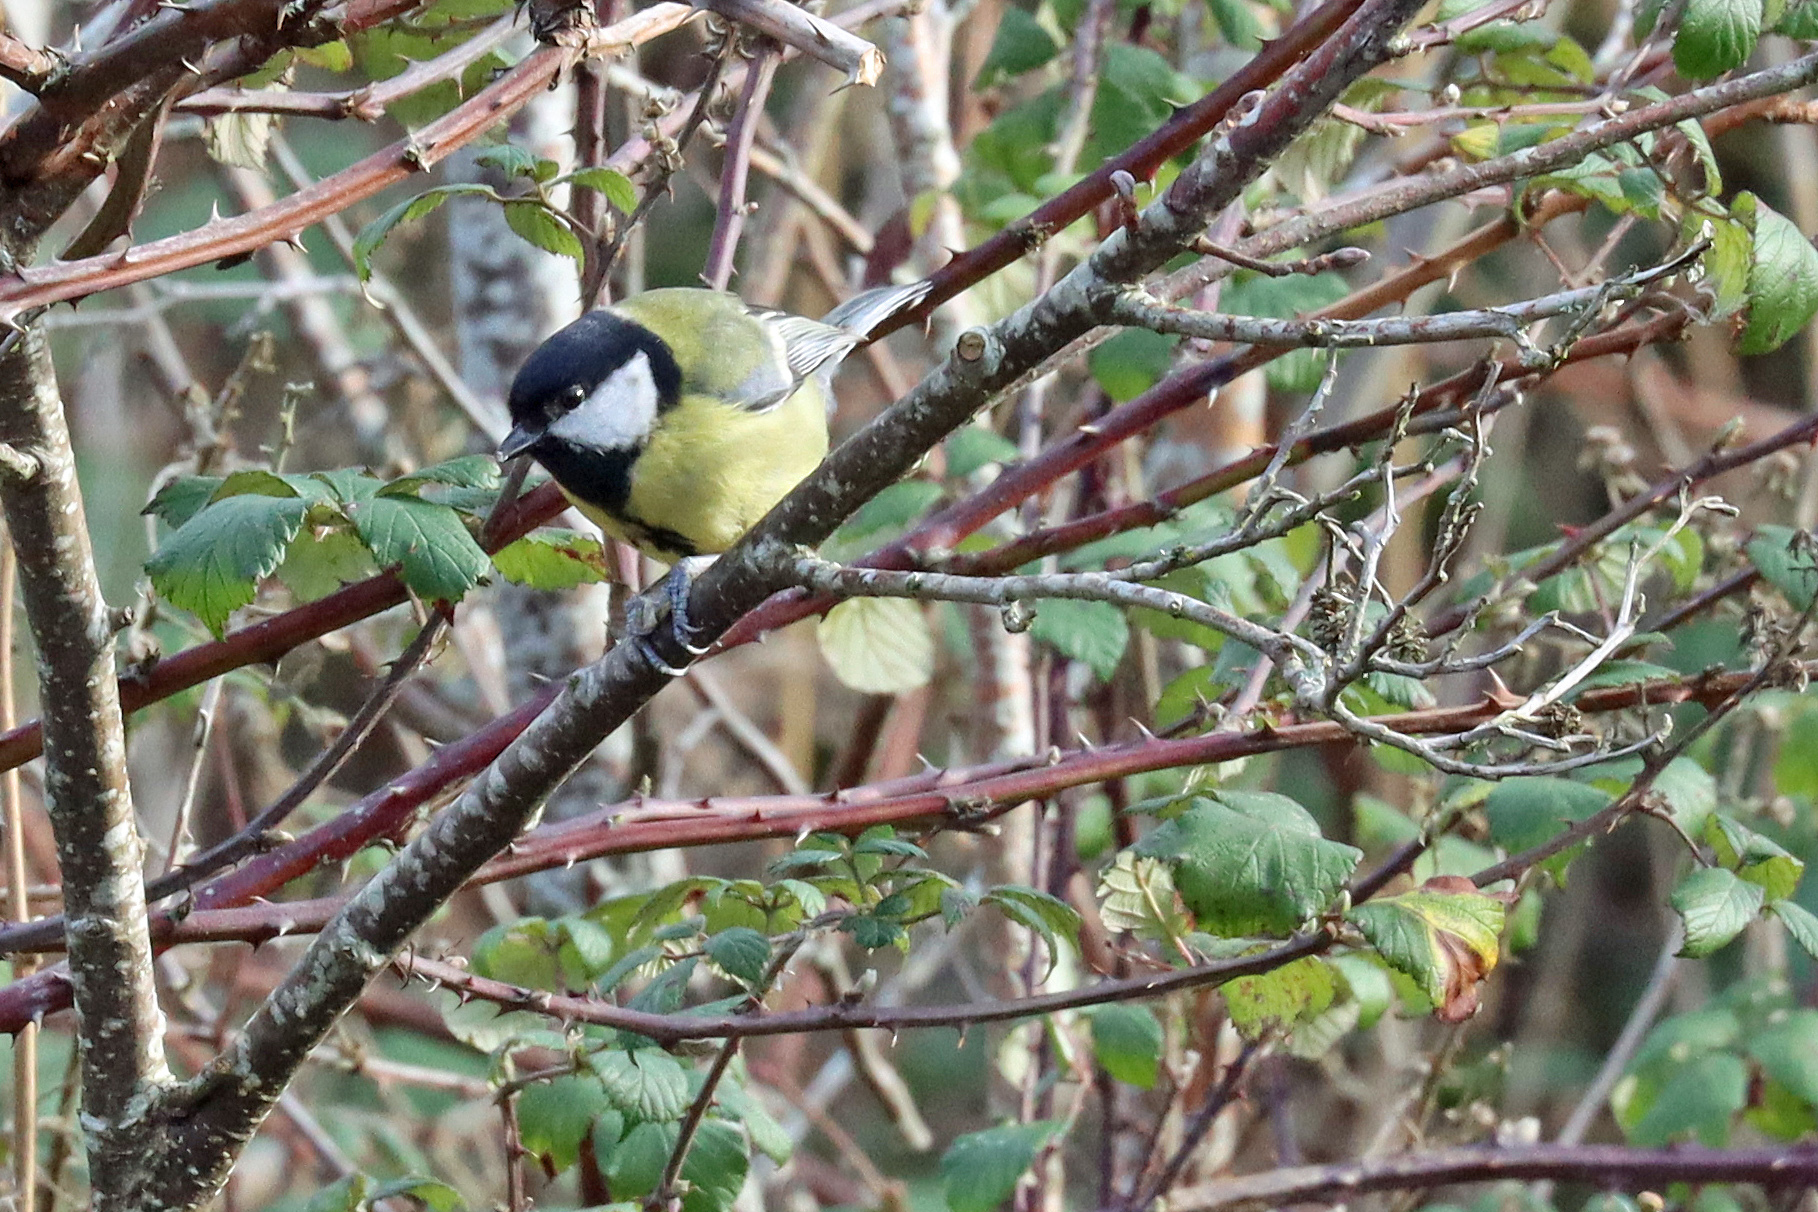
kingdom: Animalia
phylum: Chordata
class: Aves
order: Passeriformes
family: Paridae
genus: Parus
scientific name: Parus major
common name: Great tit
